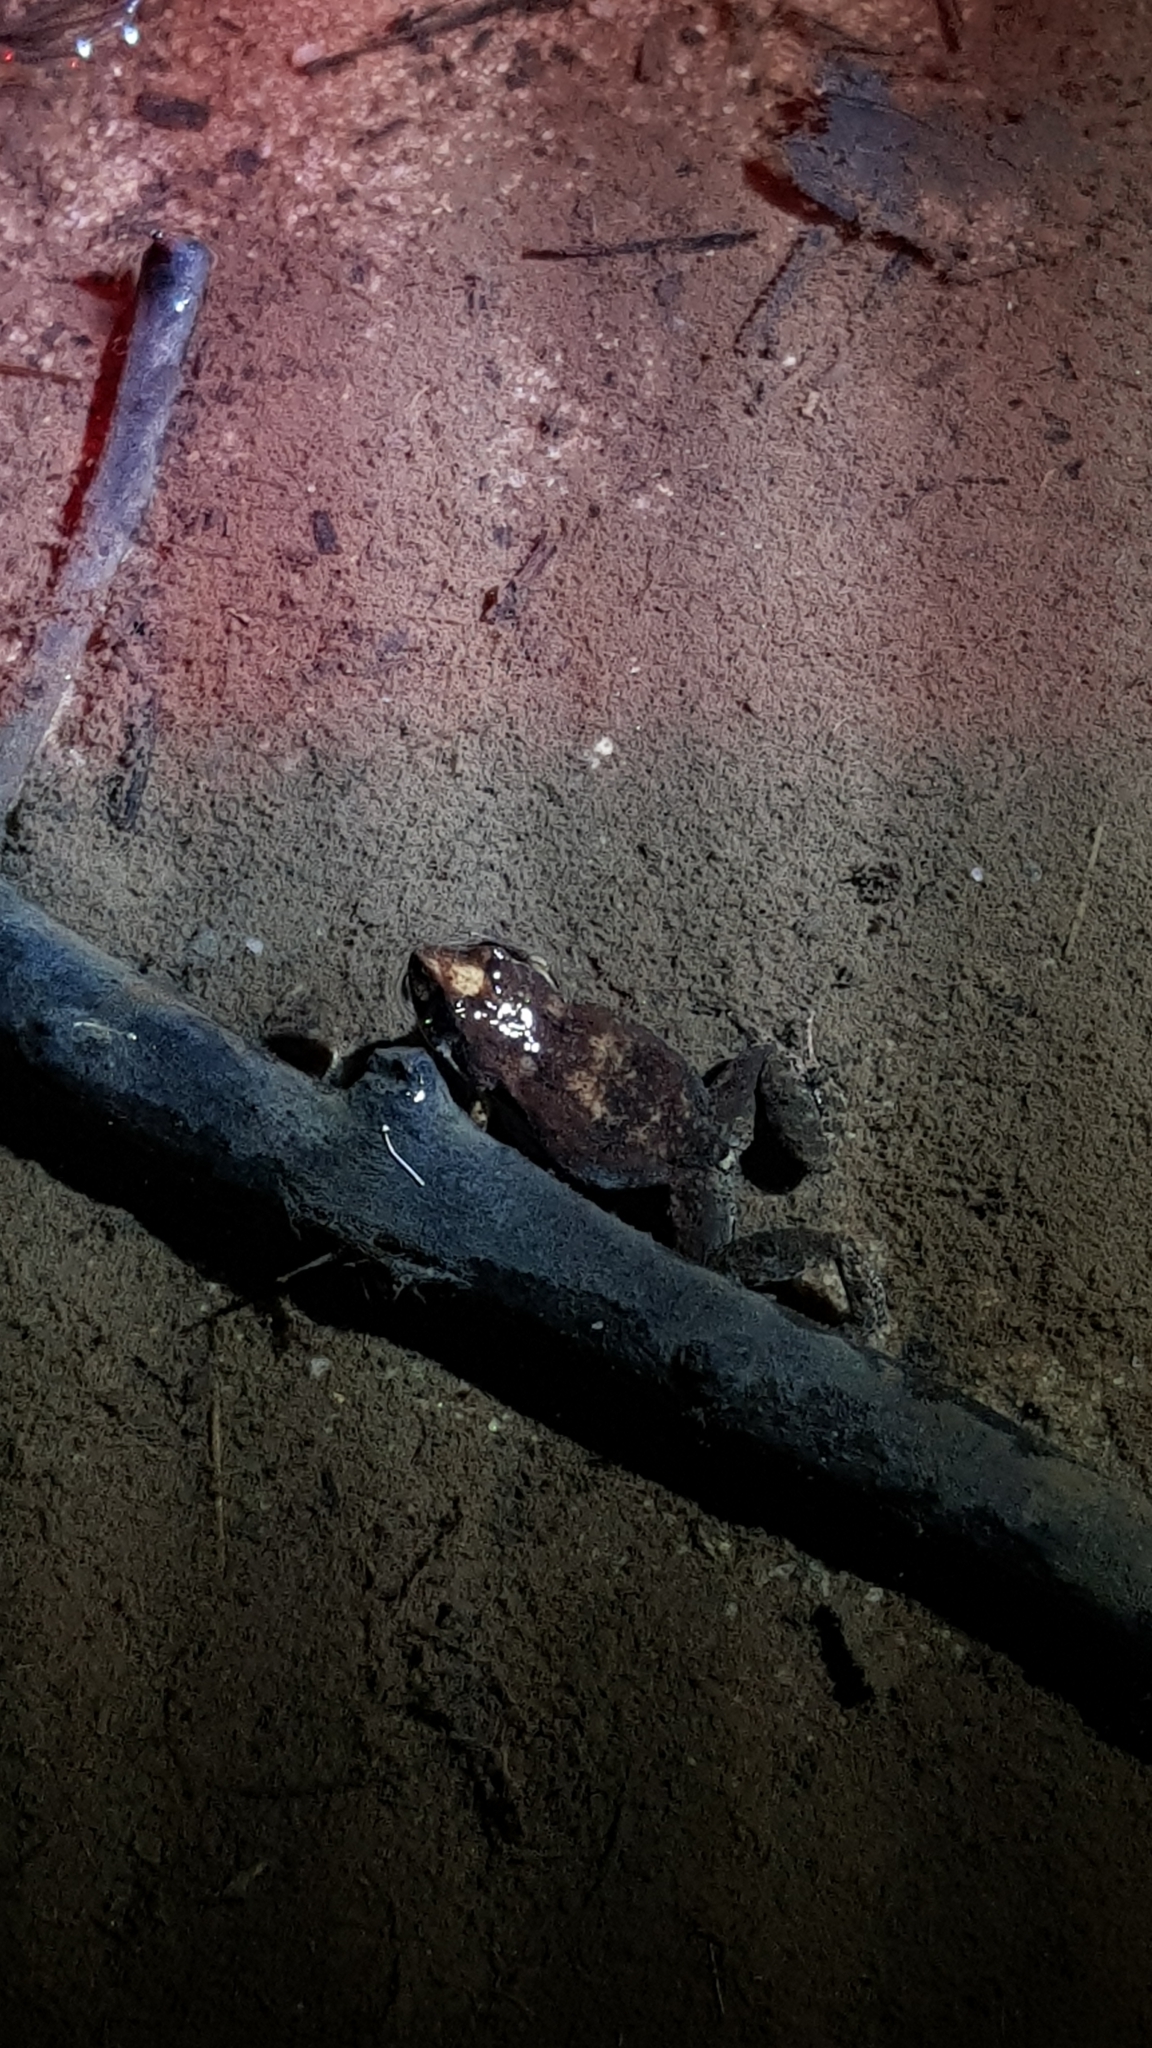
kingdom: Animalia
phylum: Chordata
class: Amphibia
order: Anura
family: Myobatrachidae
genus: Crinia
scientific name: Crinia signifera
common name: Brown froglet
